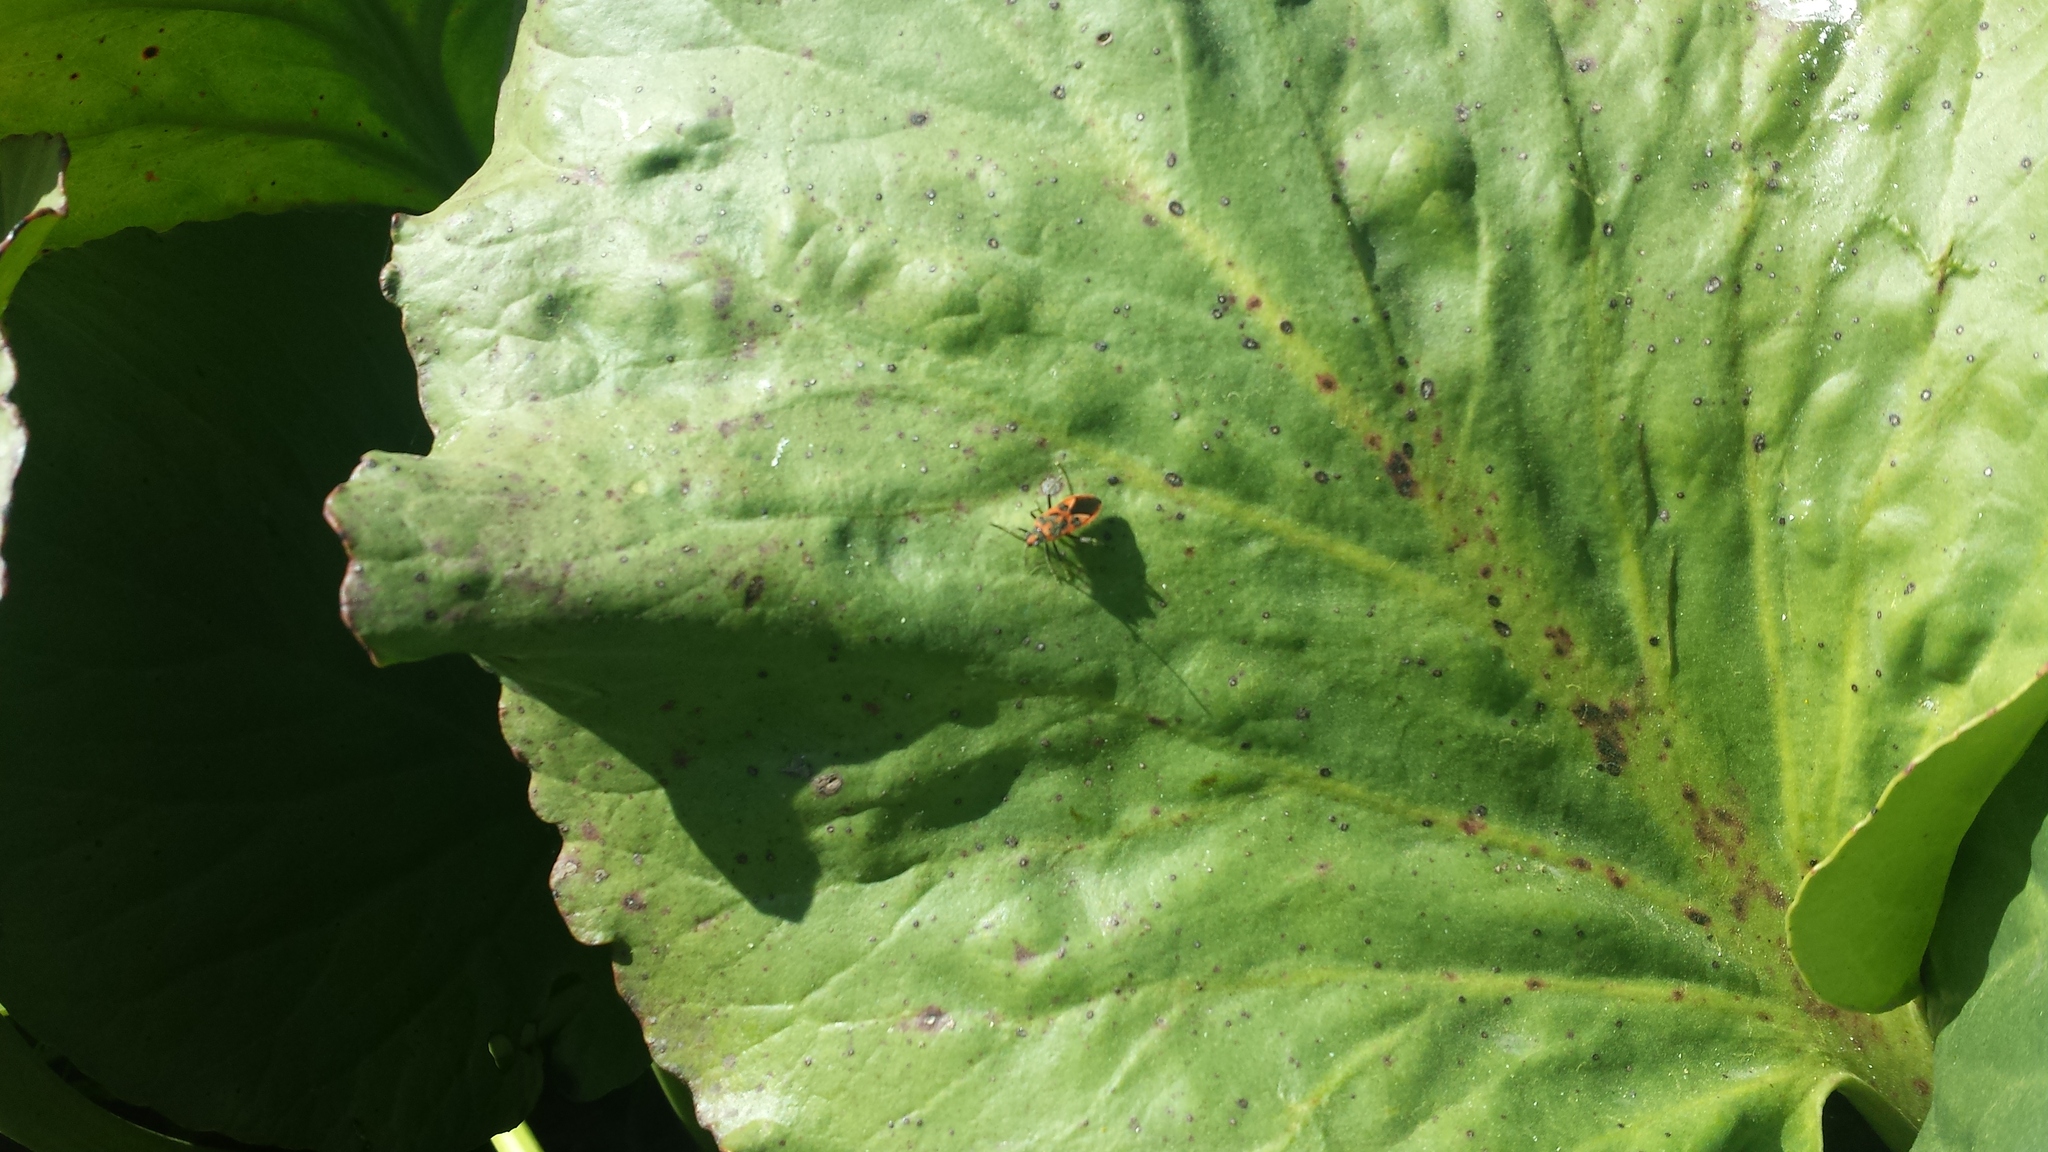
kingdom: Animalia
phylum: Arthropoda
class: Insecta
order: Hemiptera
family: Rhopalidae
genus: Corizus
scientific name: Corizus hyoscyami
